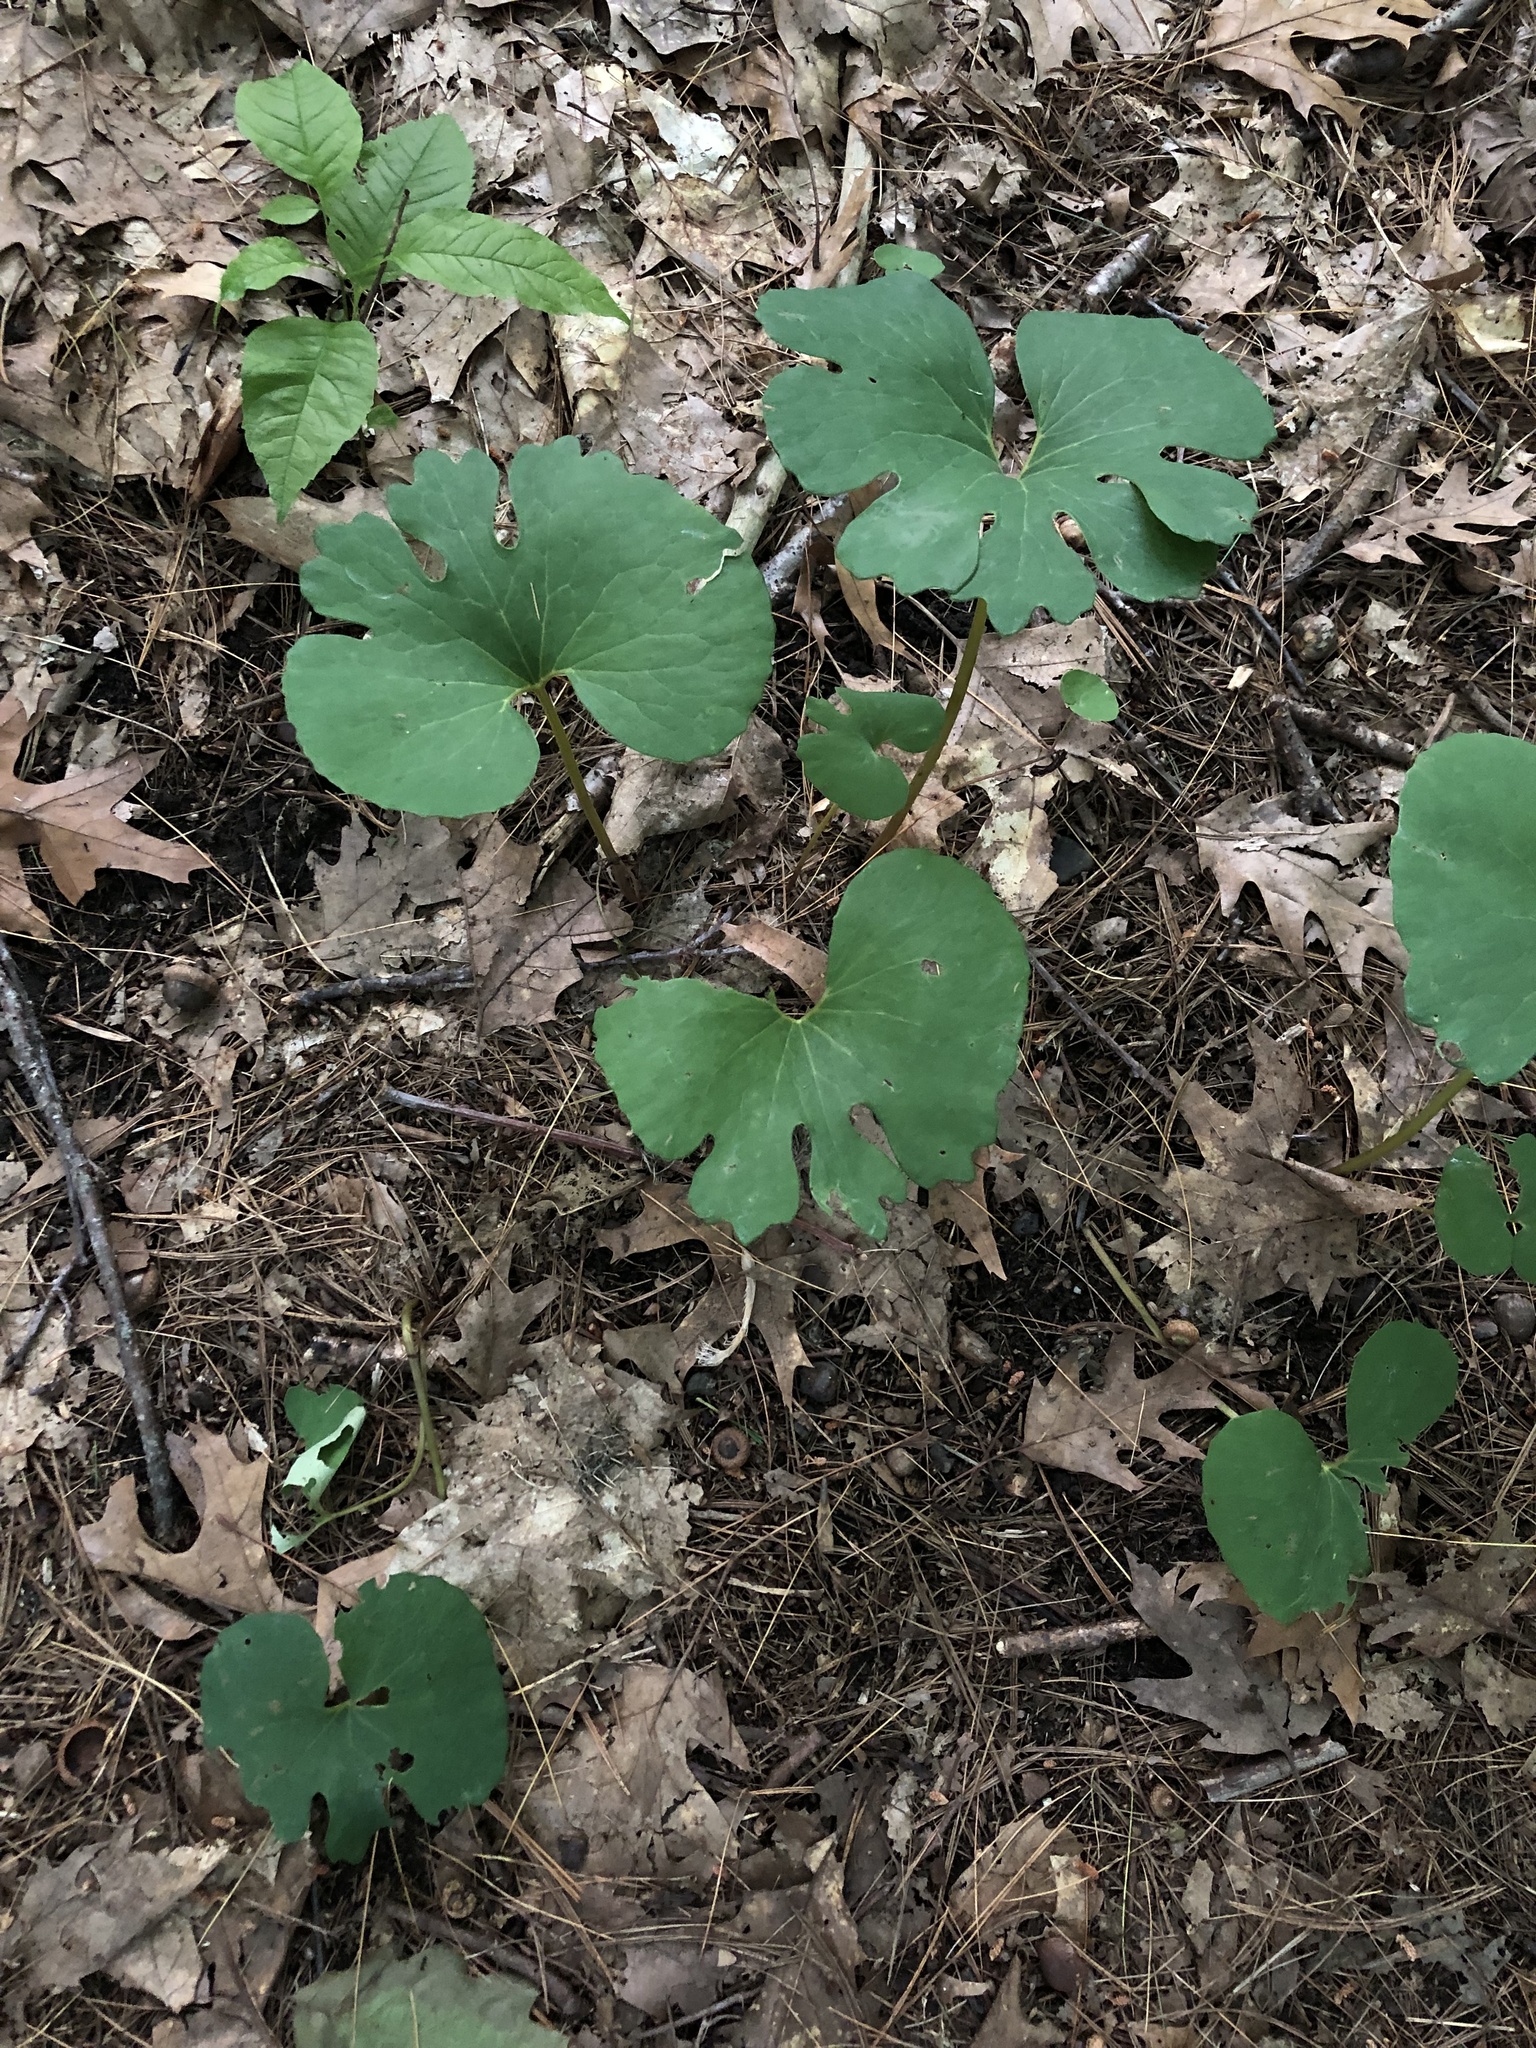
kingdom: Plantae
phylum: Tracheophyta
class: Magnoliopsida
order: Ranunculales
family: Papaveraceae
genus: Sanguinaria
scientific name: Sanguinaria canadensis
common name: Bloodroot
